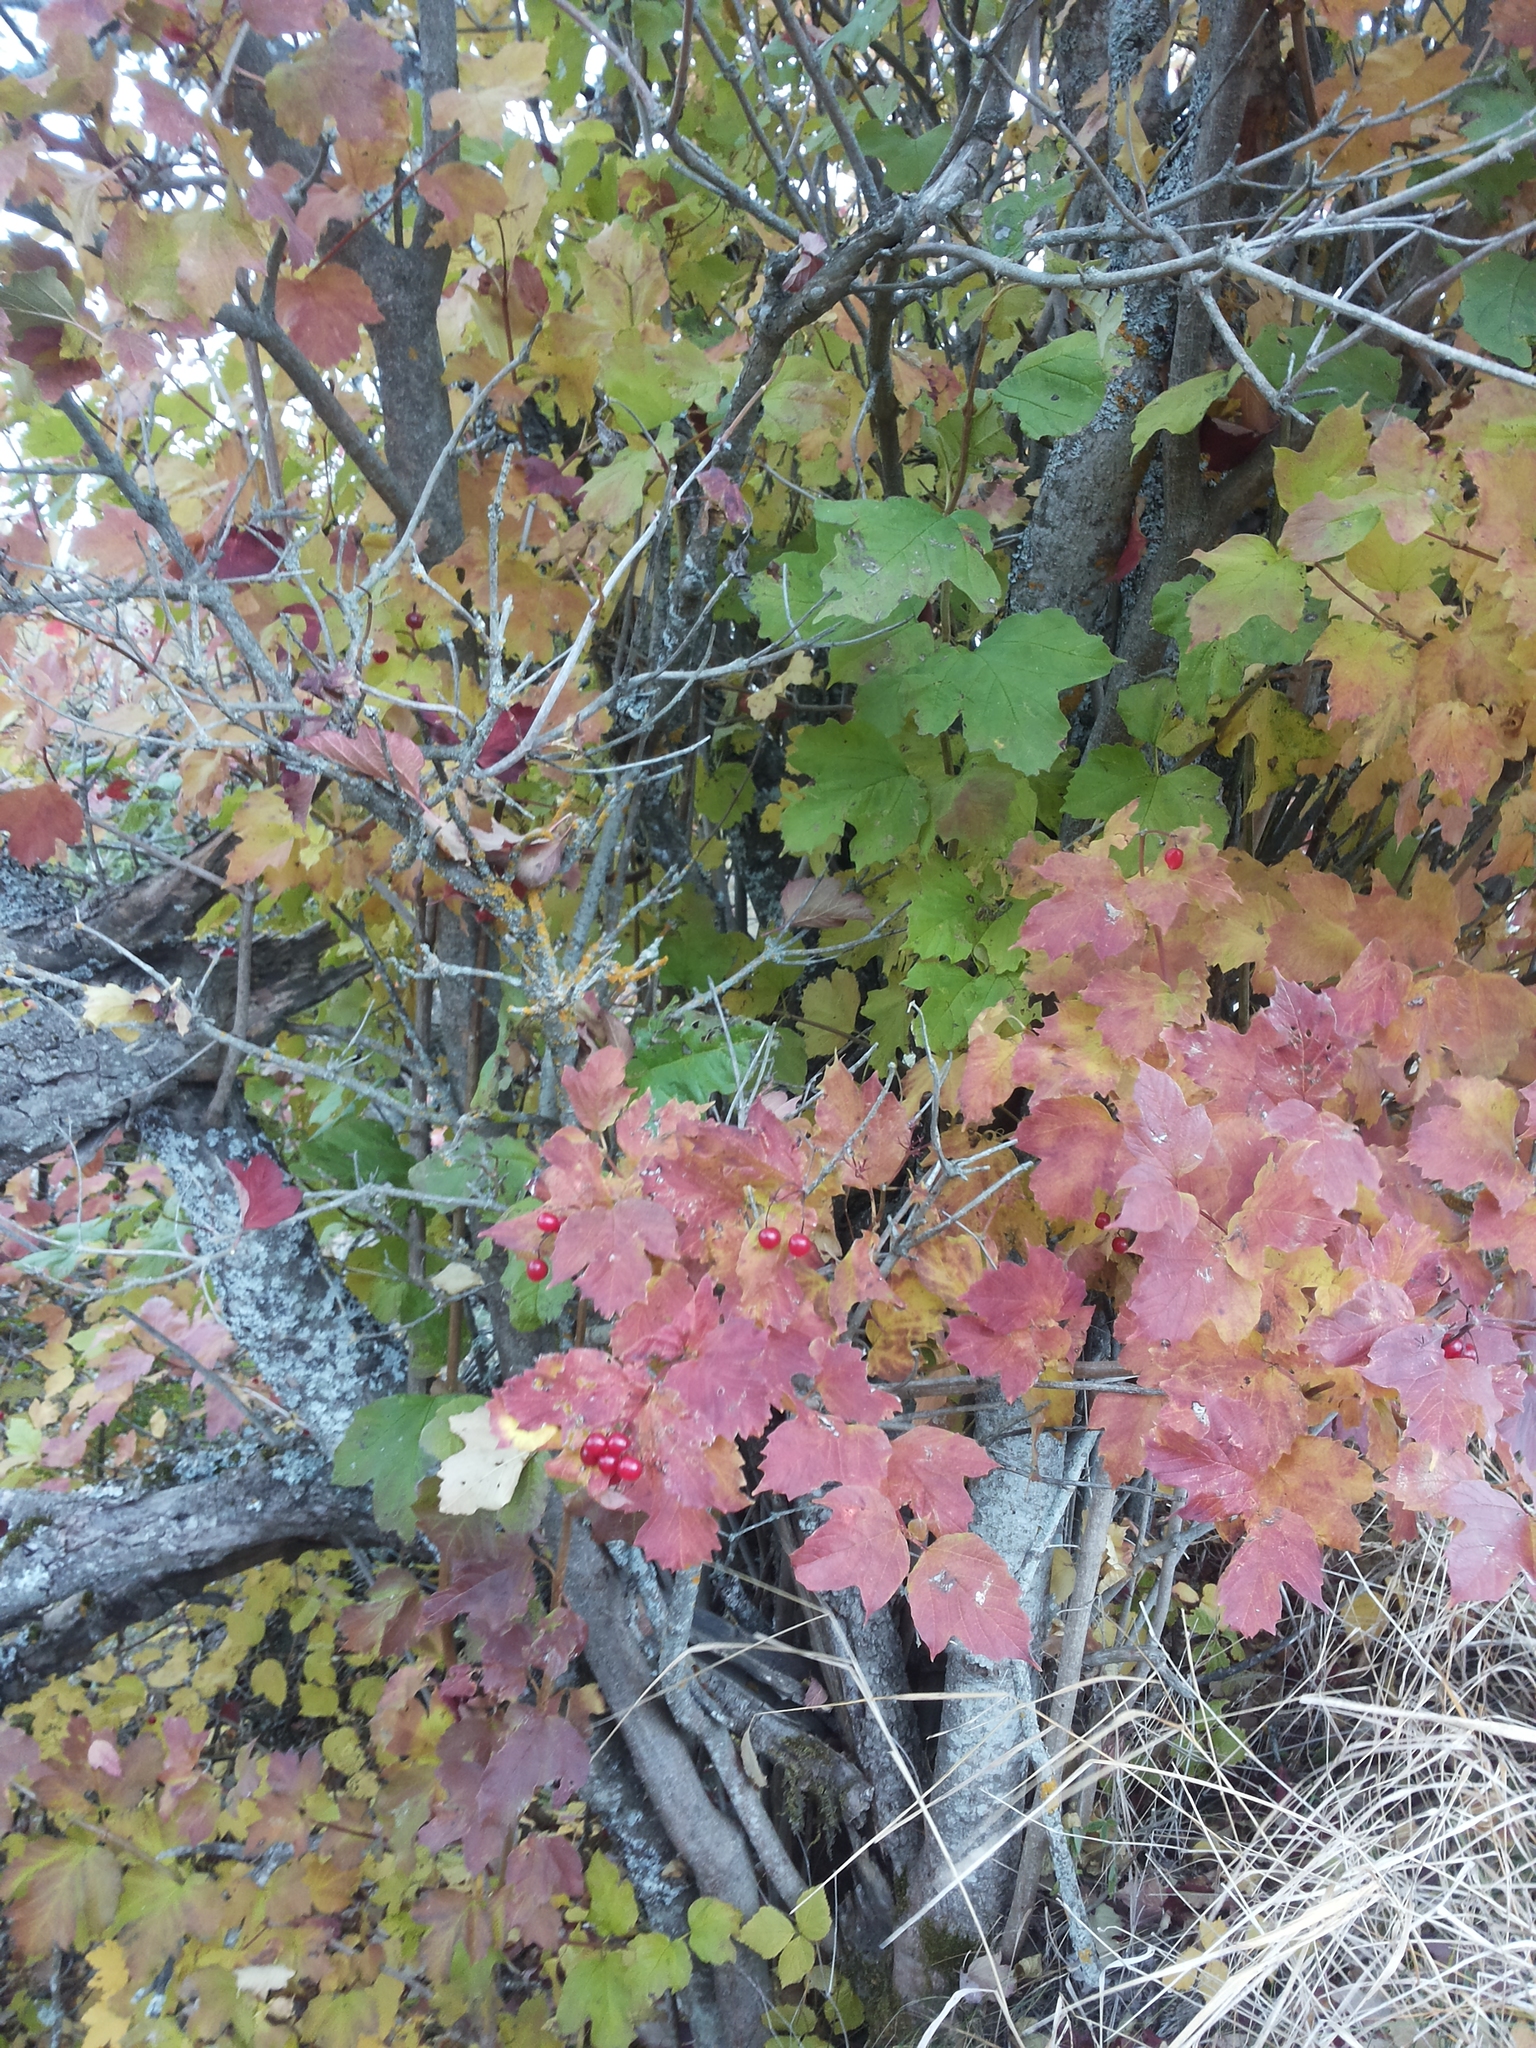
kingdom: Plantae
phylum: Tracheophyta
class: Magnoliopsida
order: Dipsacales
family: Viburnaceae
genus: Viburnum
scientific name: Viburnum opulus
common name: Guelder-rose
